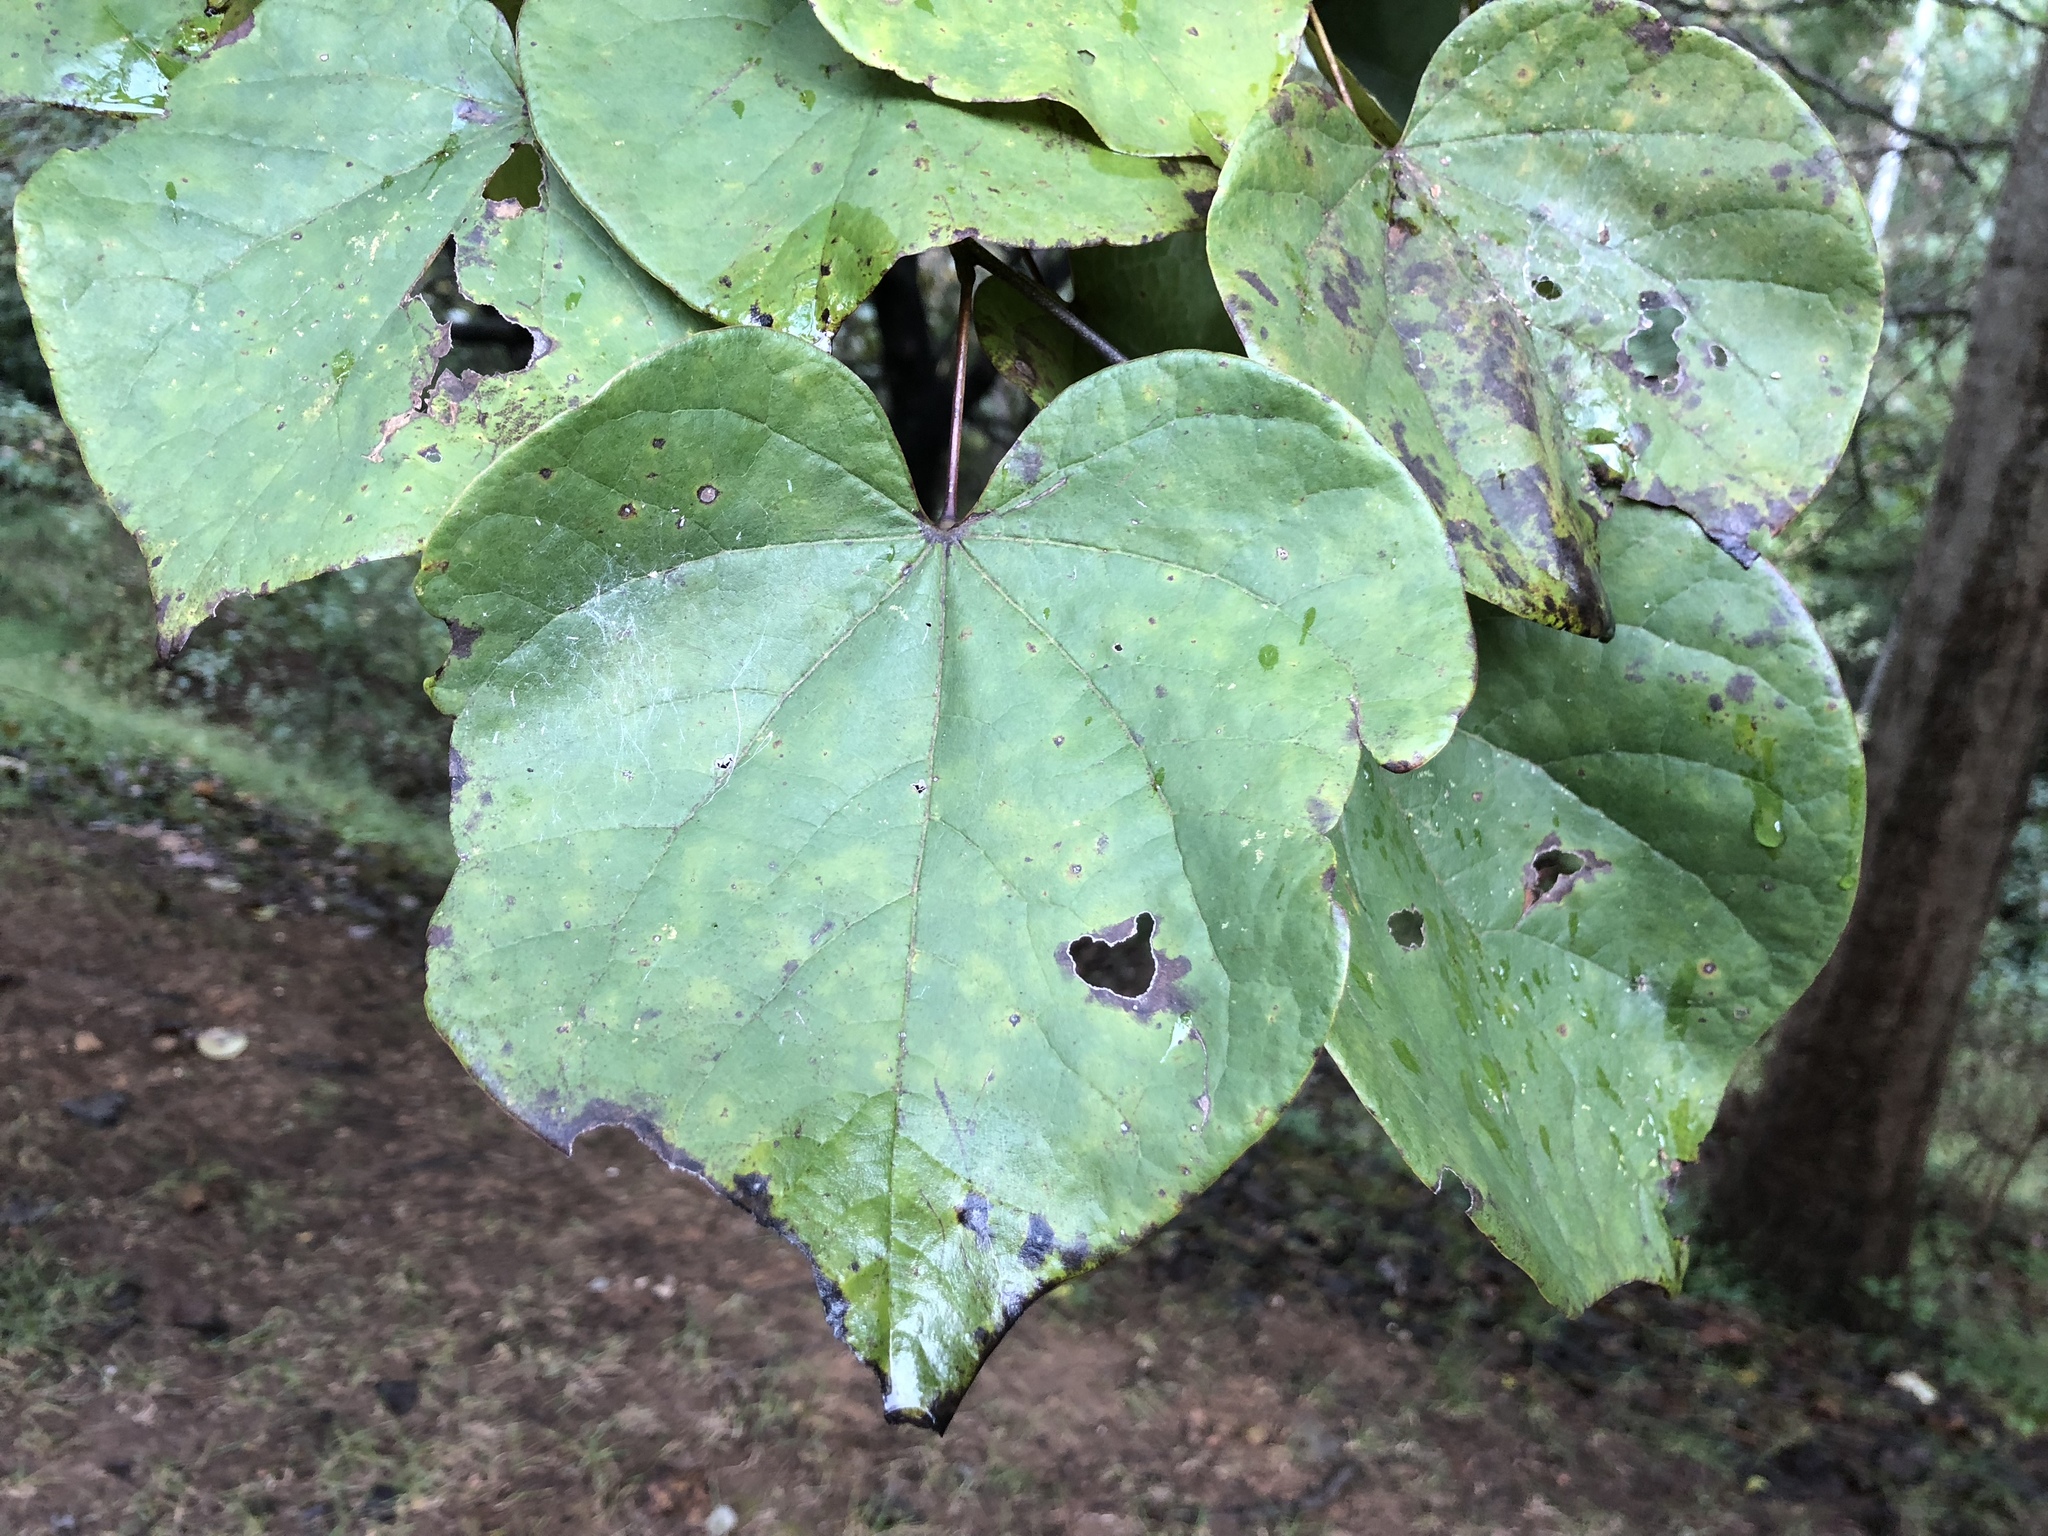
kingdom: Plantae
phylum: Tracheophyta
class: Magnoliopsida
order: Fabales
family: Fabaceae
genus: Cercis
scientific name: Cercis canadensis
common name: Eastern redbud
